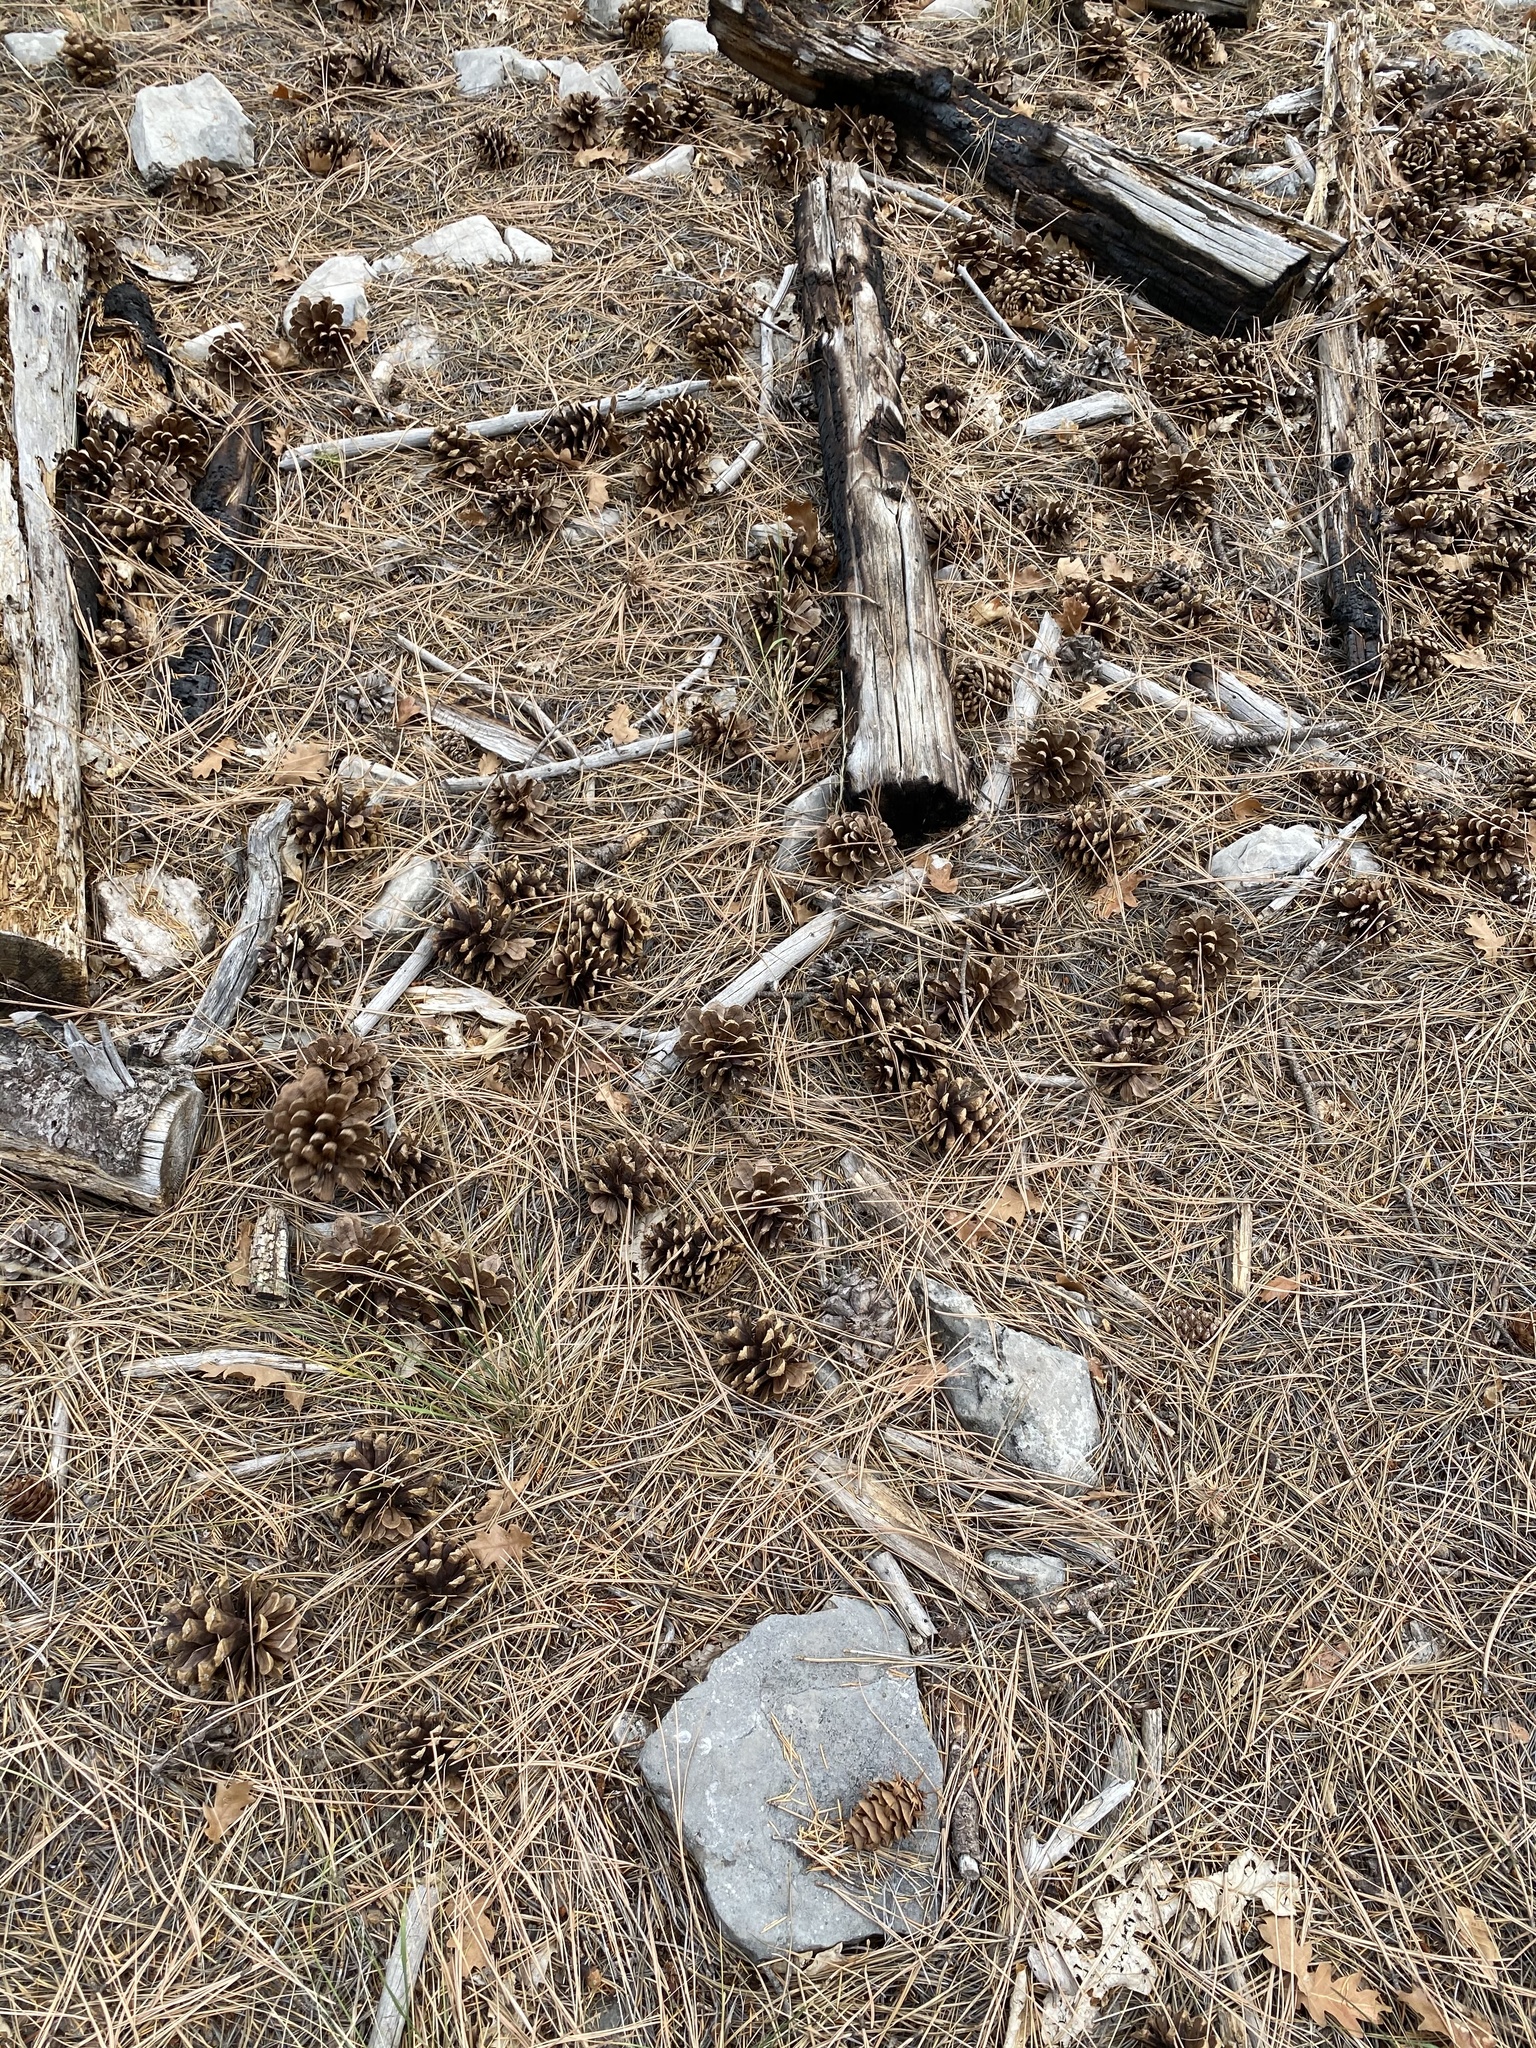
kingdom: Plantae
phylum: Tracheophyta
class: Pinopsida
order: Pinales
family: Pinaceae
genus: Pinus
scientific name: Pinus ponderosa
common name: Western yellow-pine
